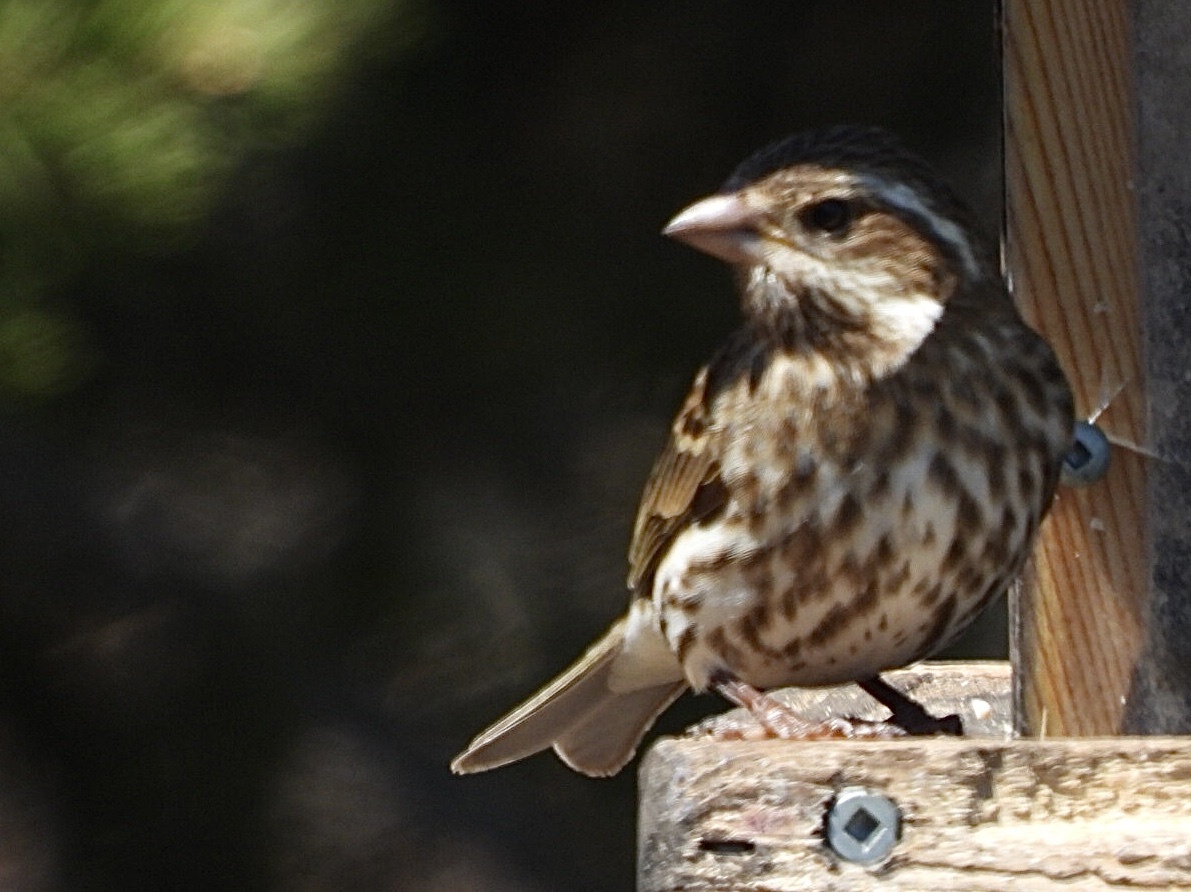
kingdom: Animalia
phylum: Chordata
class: Aves
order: Passeriformes
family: Fringillidae
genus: Haemorhous
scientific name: Haemorhous purpureus
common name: Purple finch
